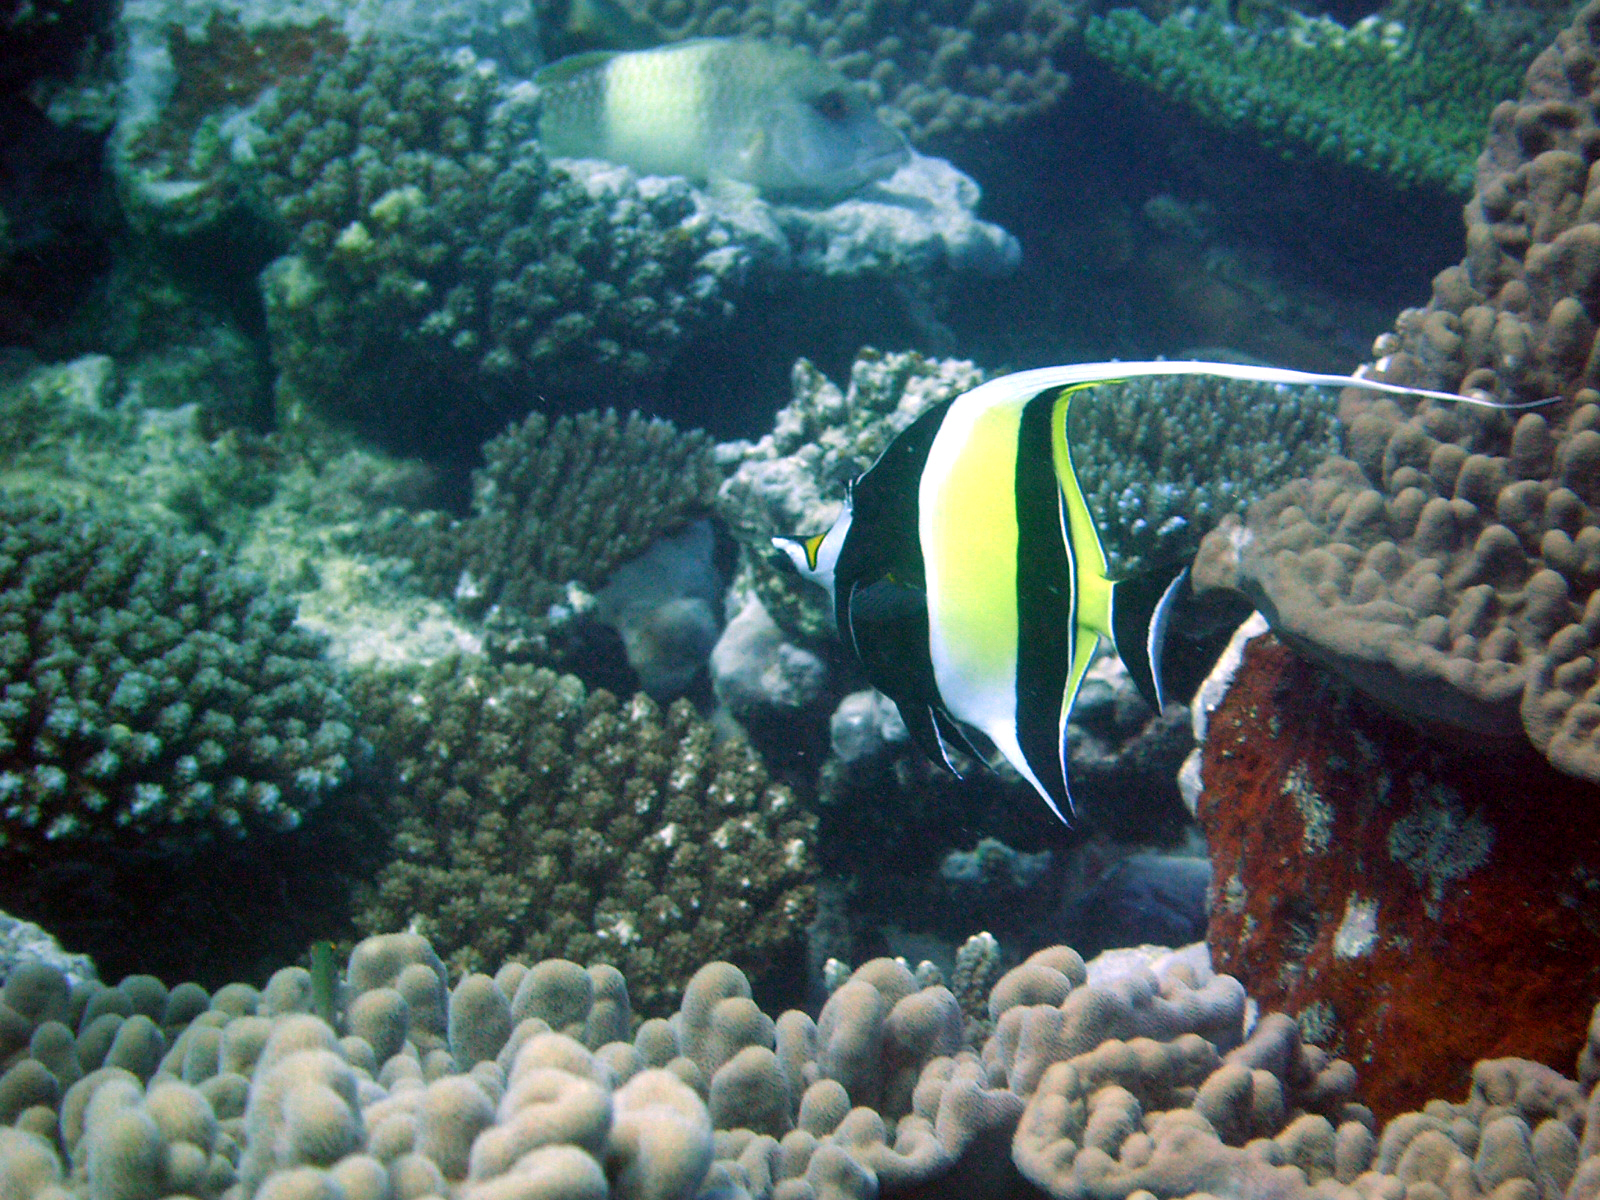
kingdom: Animalia
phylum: Chordata
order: Perciformes
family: Zanclidae
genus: Zanclus
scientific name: Zanclus cornutus
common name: Moorish idol
